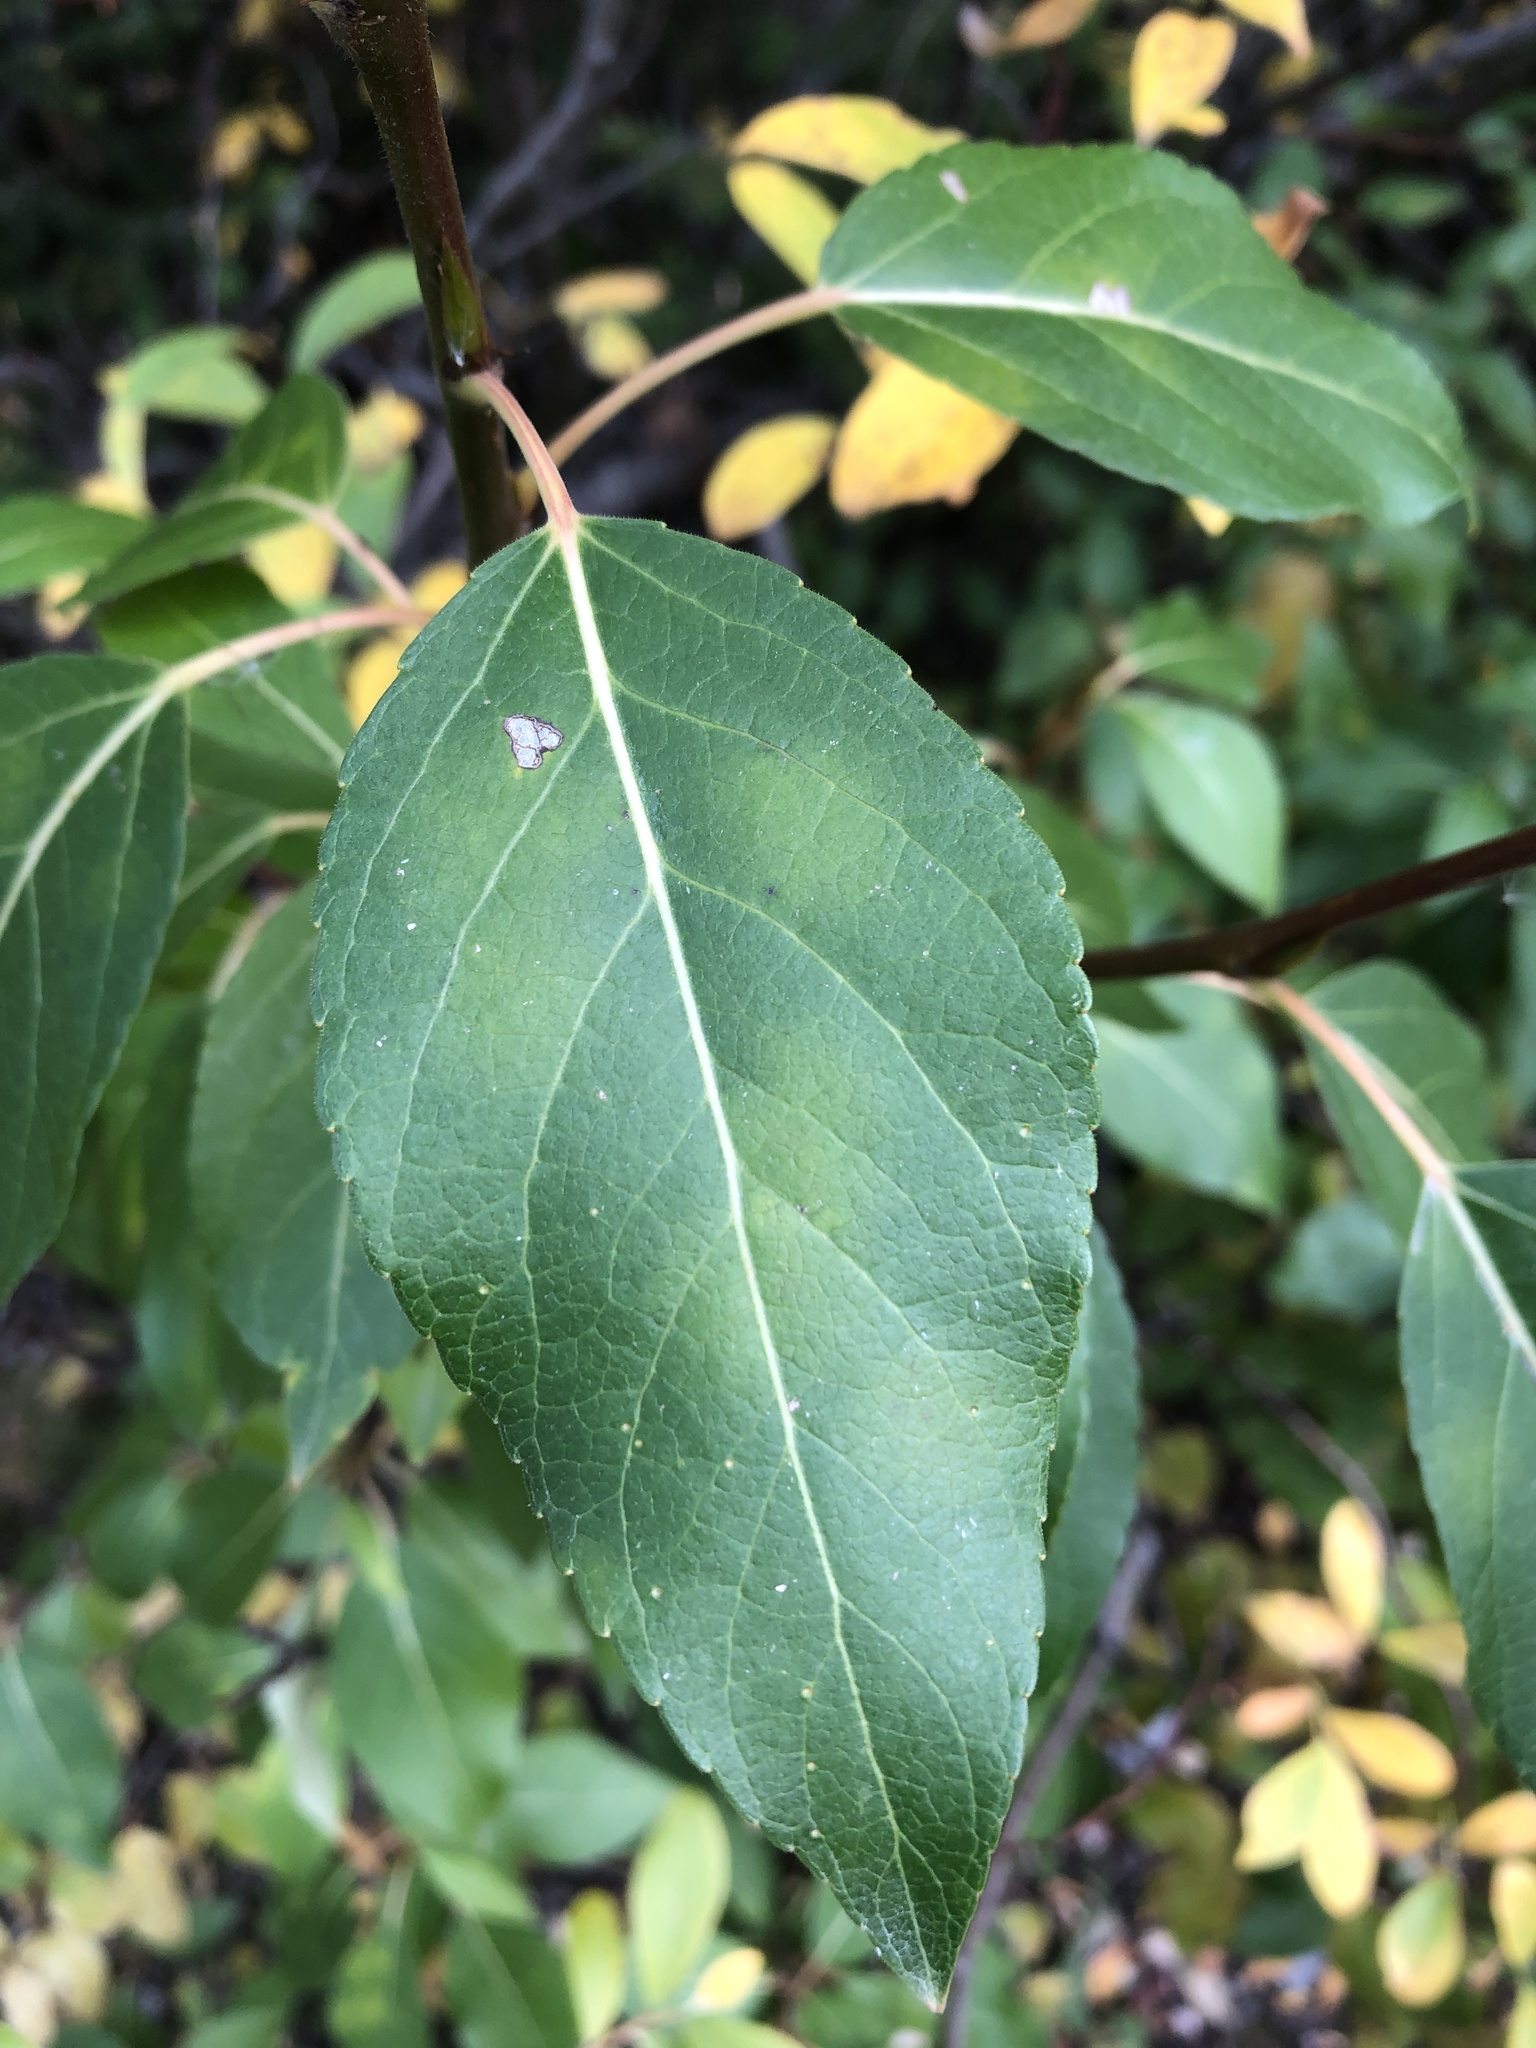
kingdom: Plantae
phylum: Tracheophyta
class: Magnoliopsida
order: Malpighiales
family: Salicaceae
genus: Populus
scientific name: Populus balsamifera
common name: Balsam poplar
